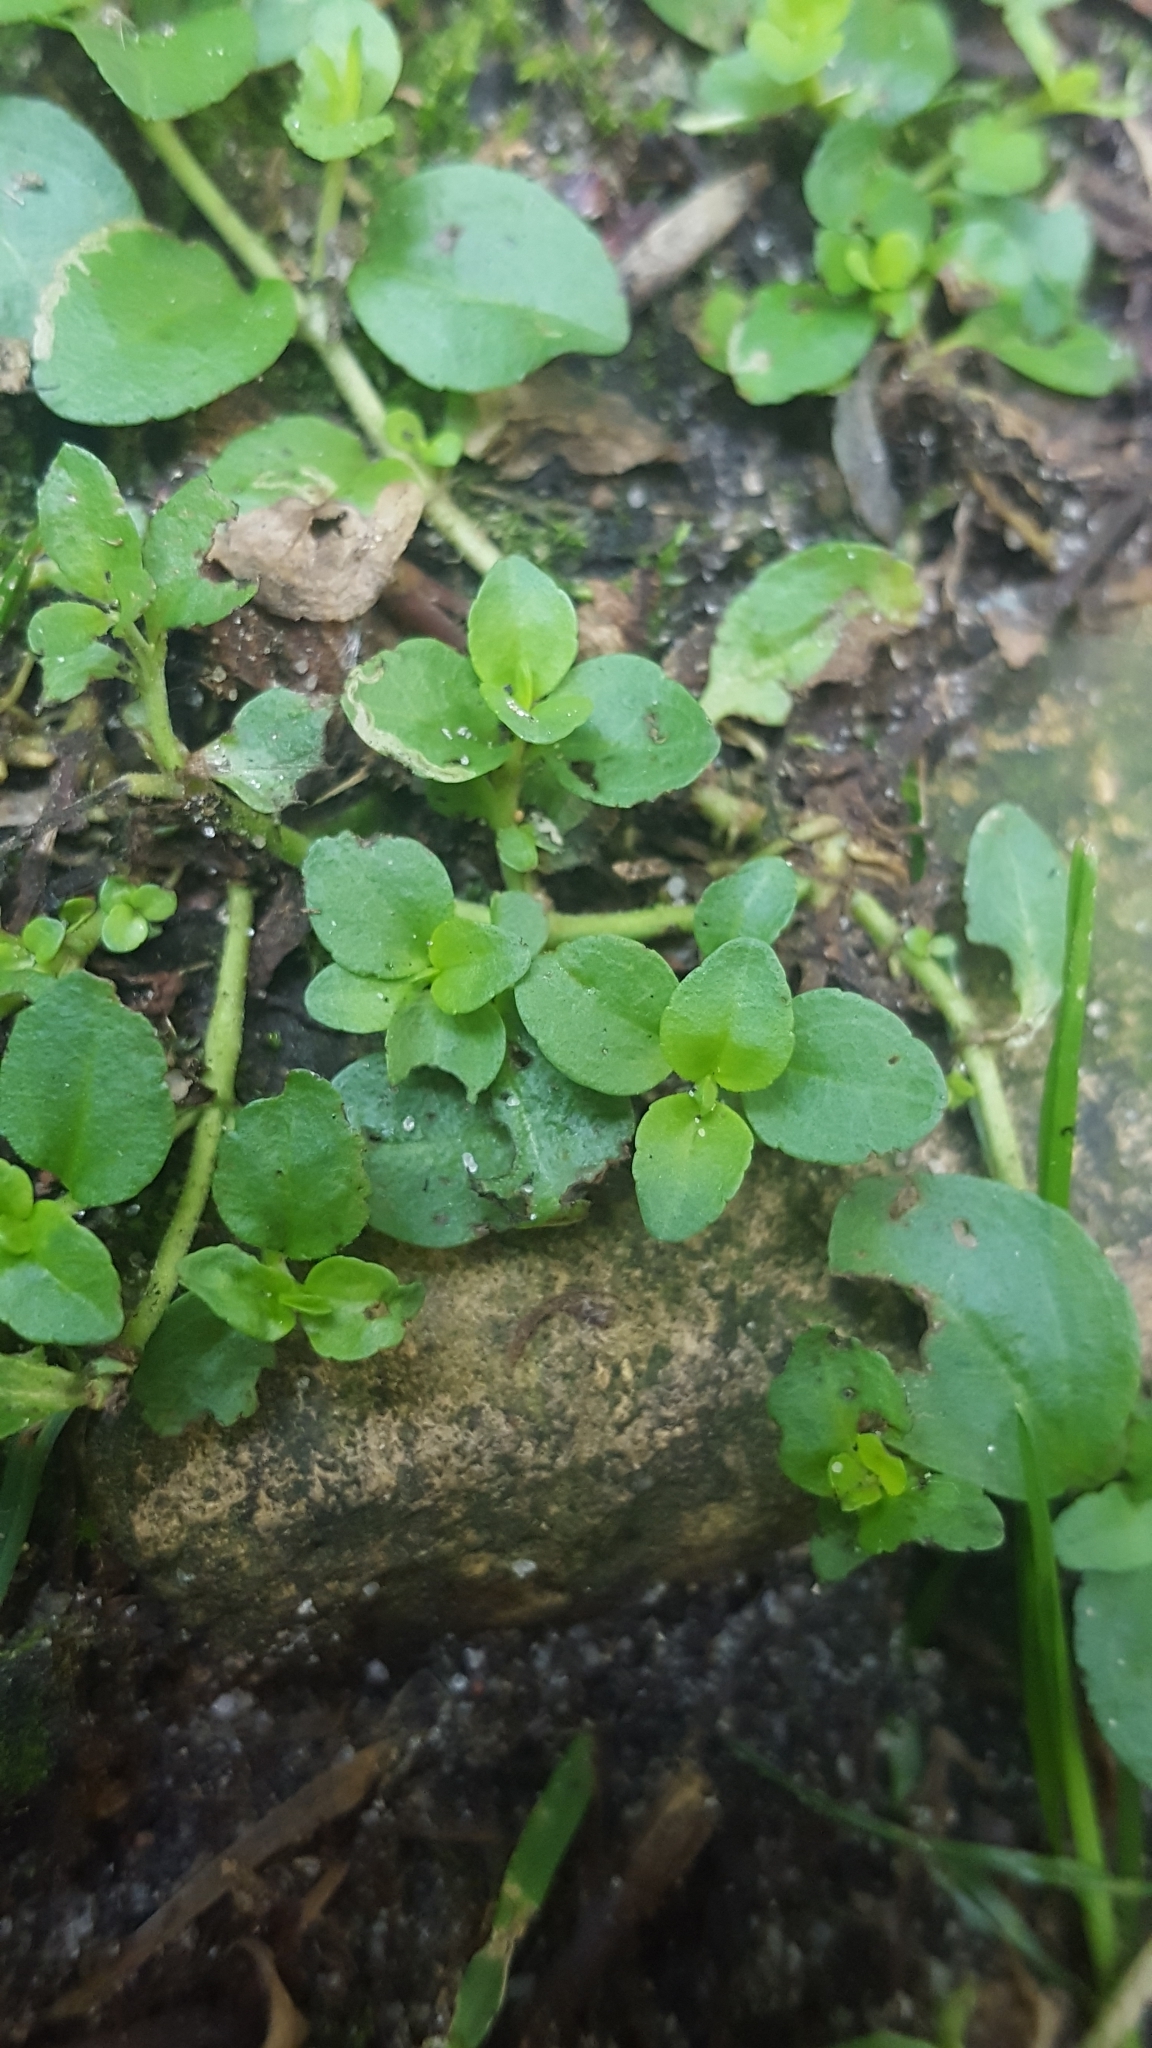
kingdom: Plantae
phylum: Tracheophyta
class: Magnoliopsida
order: Lamiales
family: Plantaginaceae
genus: Veronica
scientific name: Veronica serpyllifolia
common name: Thyme-leaved speedwell
